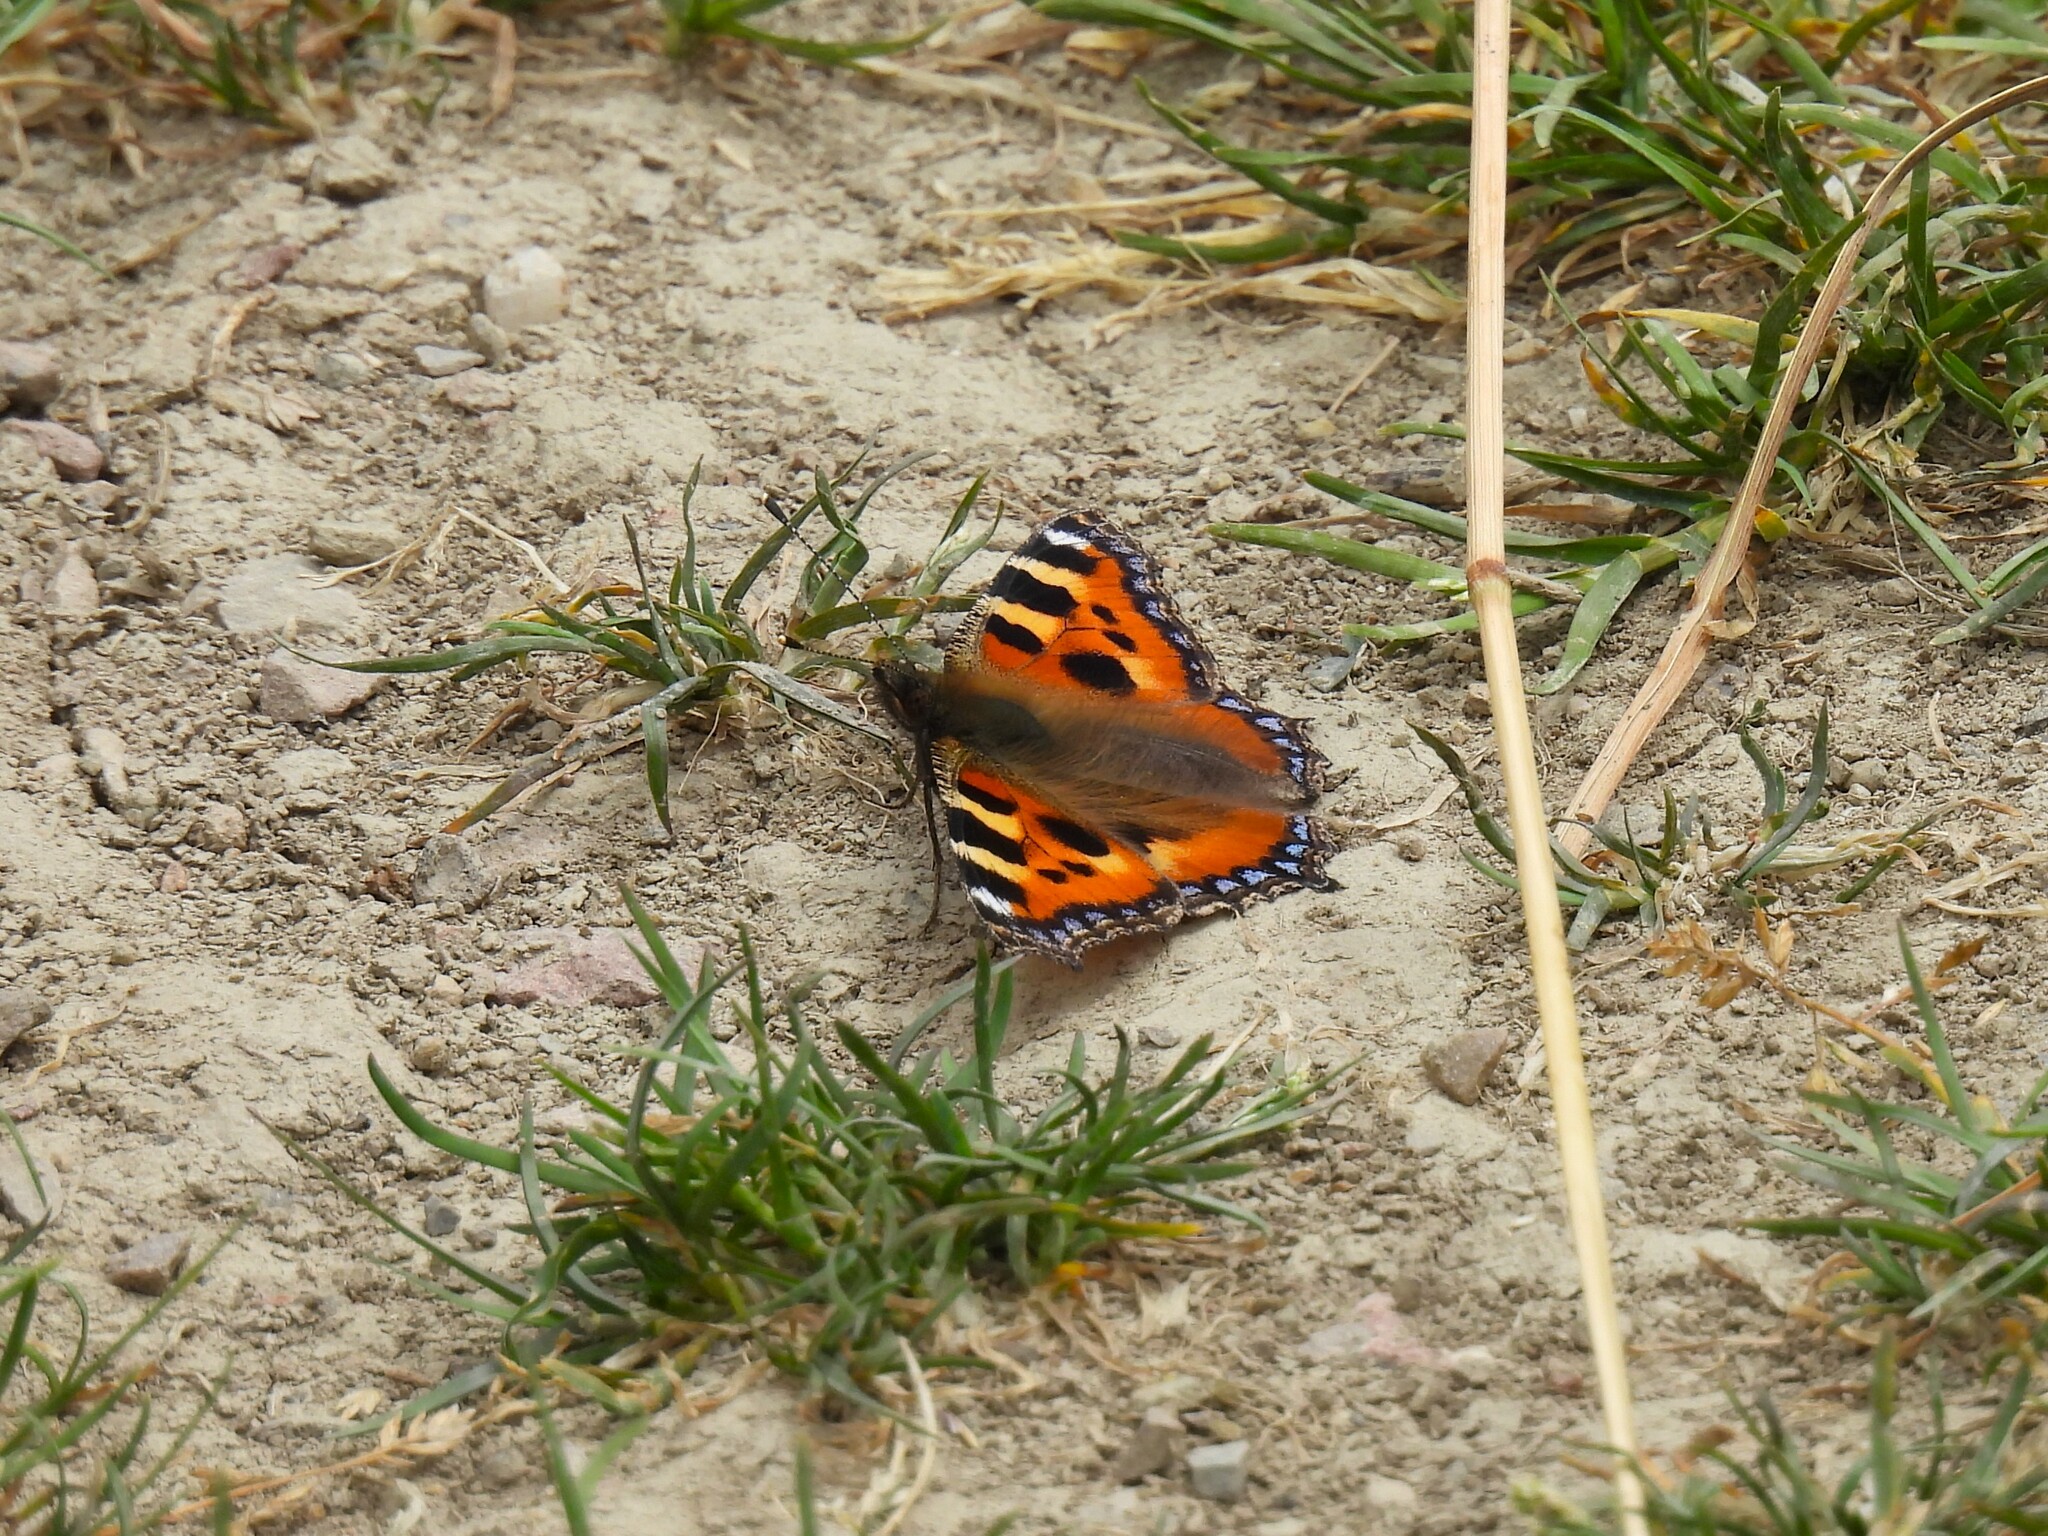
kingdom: Animalia
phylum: Arthropoda
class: Insecta
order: Lepidoptera
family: Nymphalidae
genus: Aglais
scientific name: Aglais urticae
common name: Small tortoiseshell
